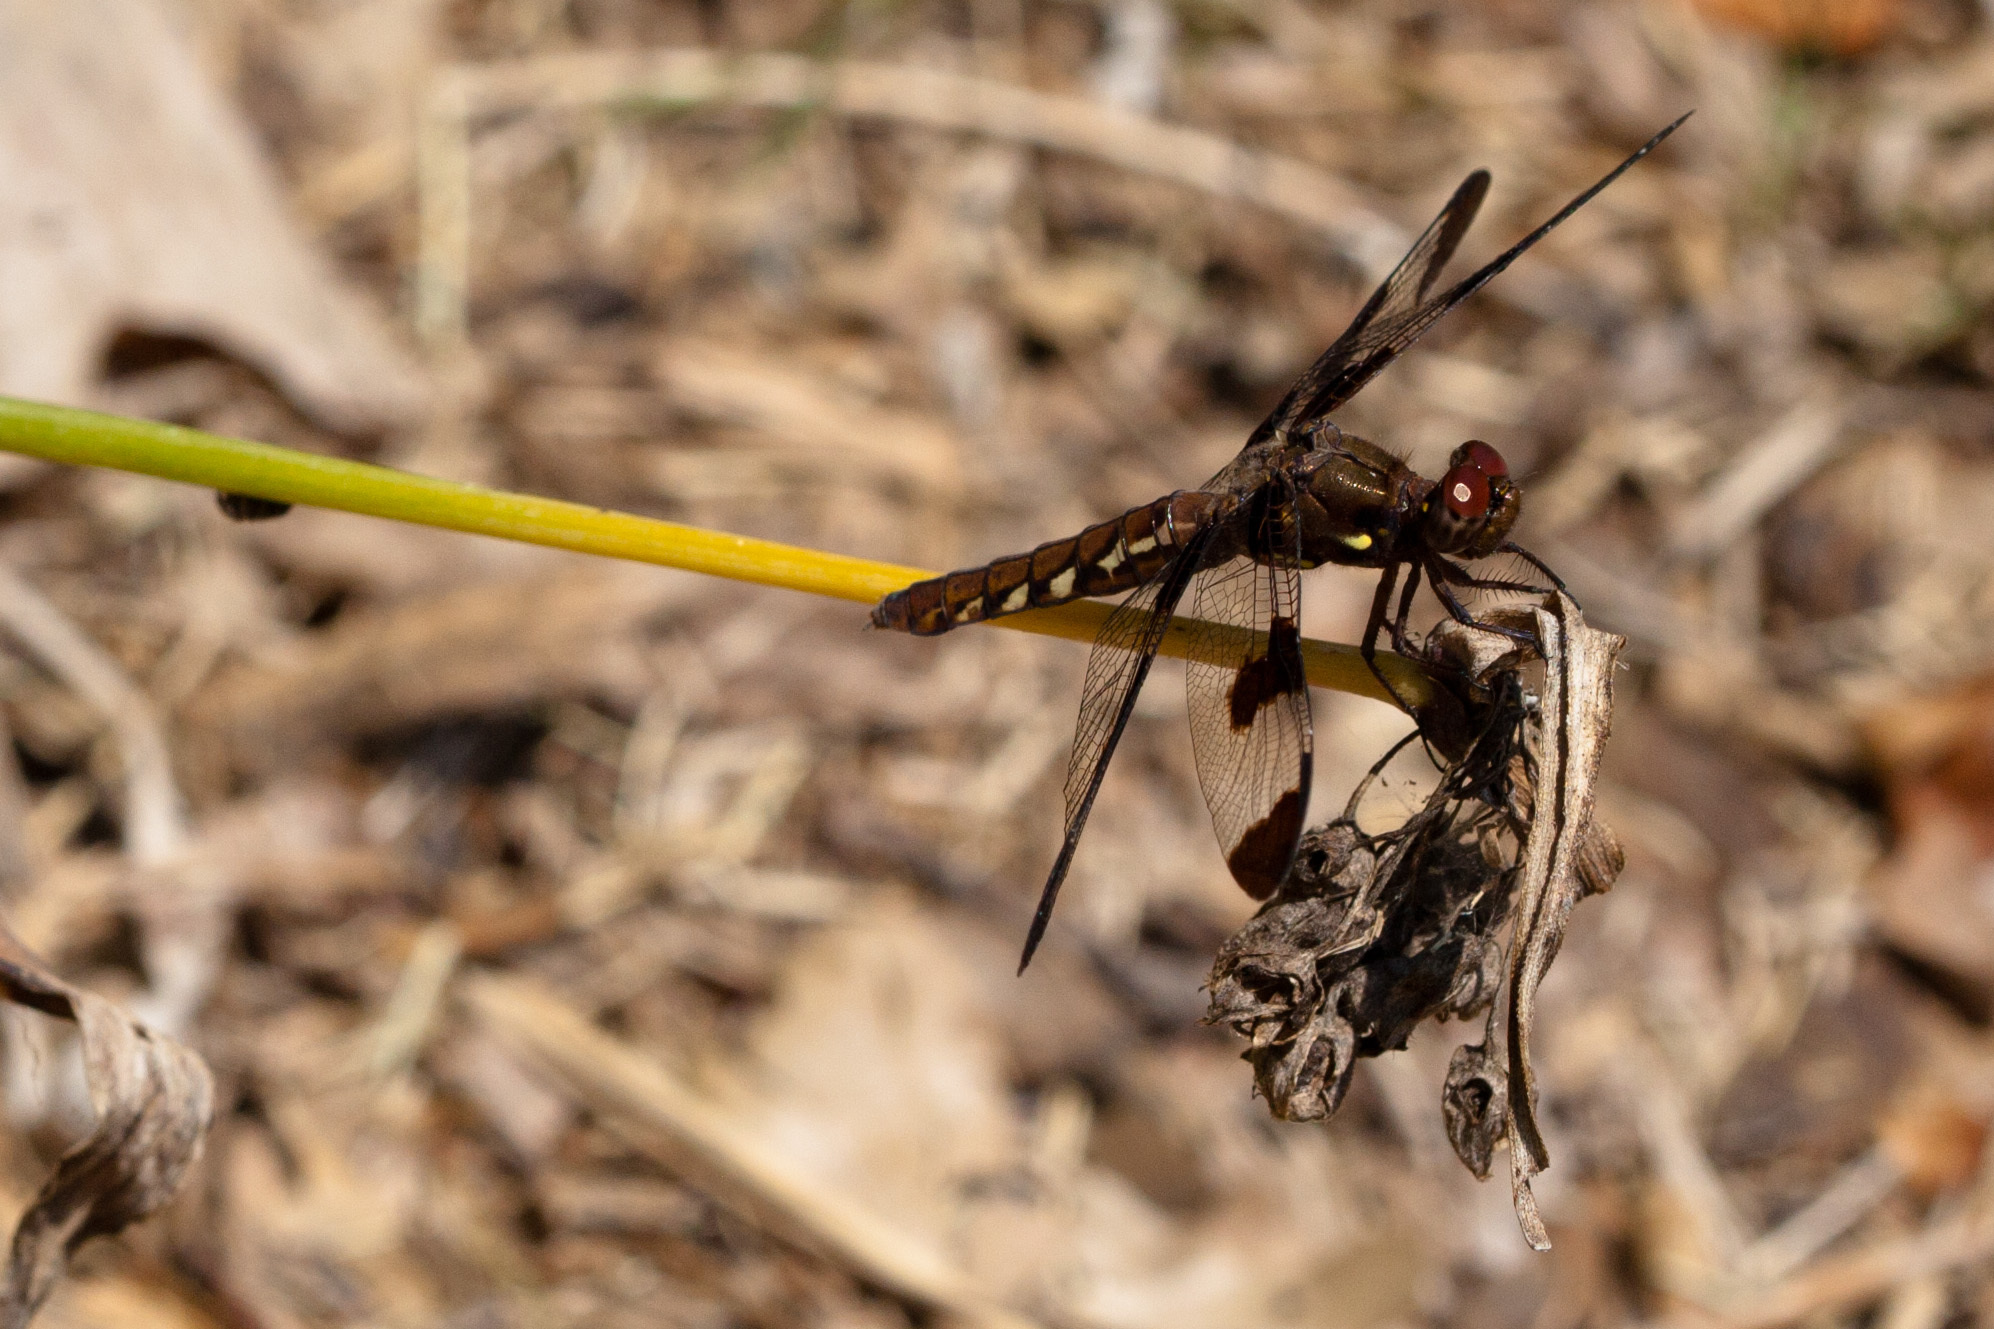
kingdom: Animalia
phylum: Arthropoda
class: Insecta
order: Odonata
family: Libellulidae
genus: Plathemis
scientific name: Plathemis lydia
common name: Common whitetail
